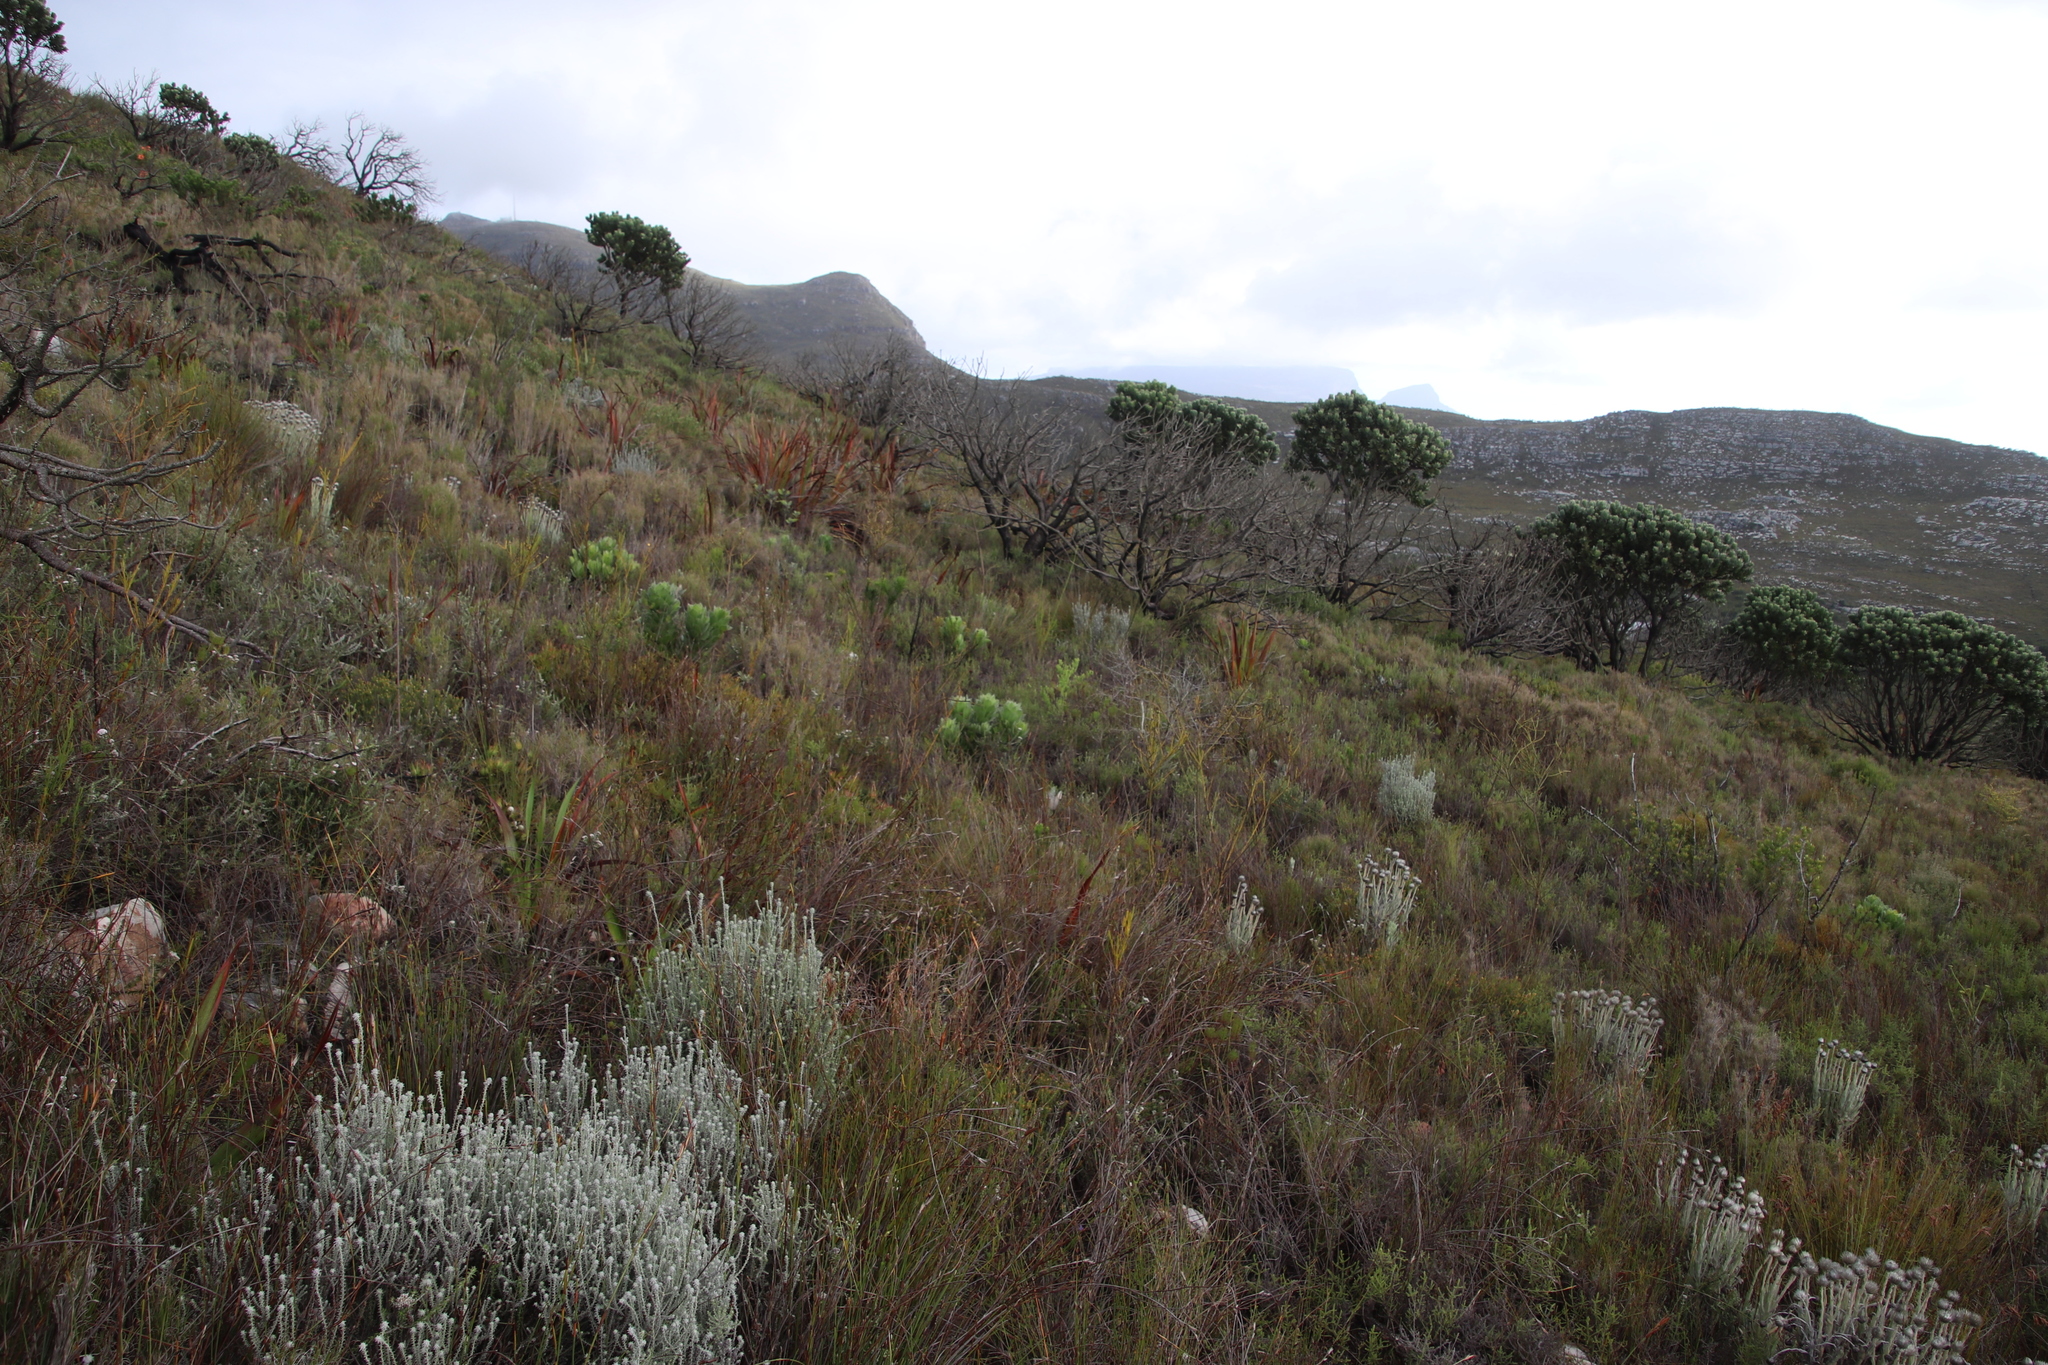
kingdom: Plantae
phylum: Tracheophyta
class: Magnoliopsida
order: Proteales
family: Proteaceae
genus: Leucospermum
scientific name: Leucospermum conocarpodendron
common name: Tree pincushion
